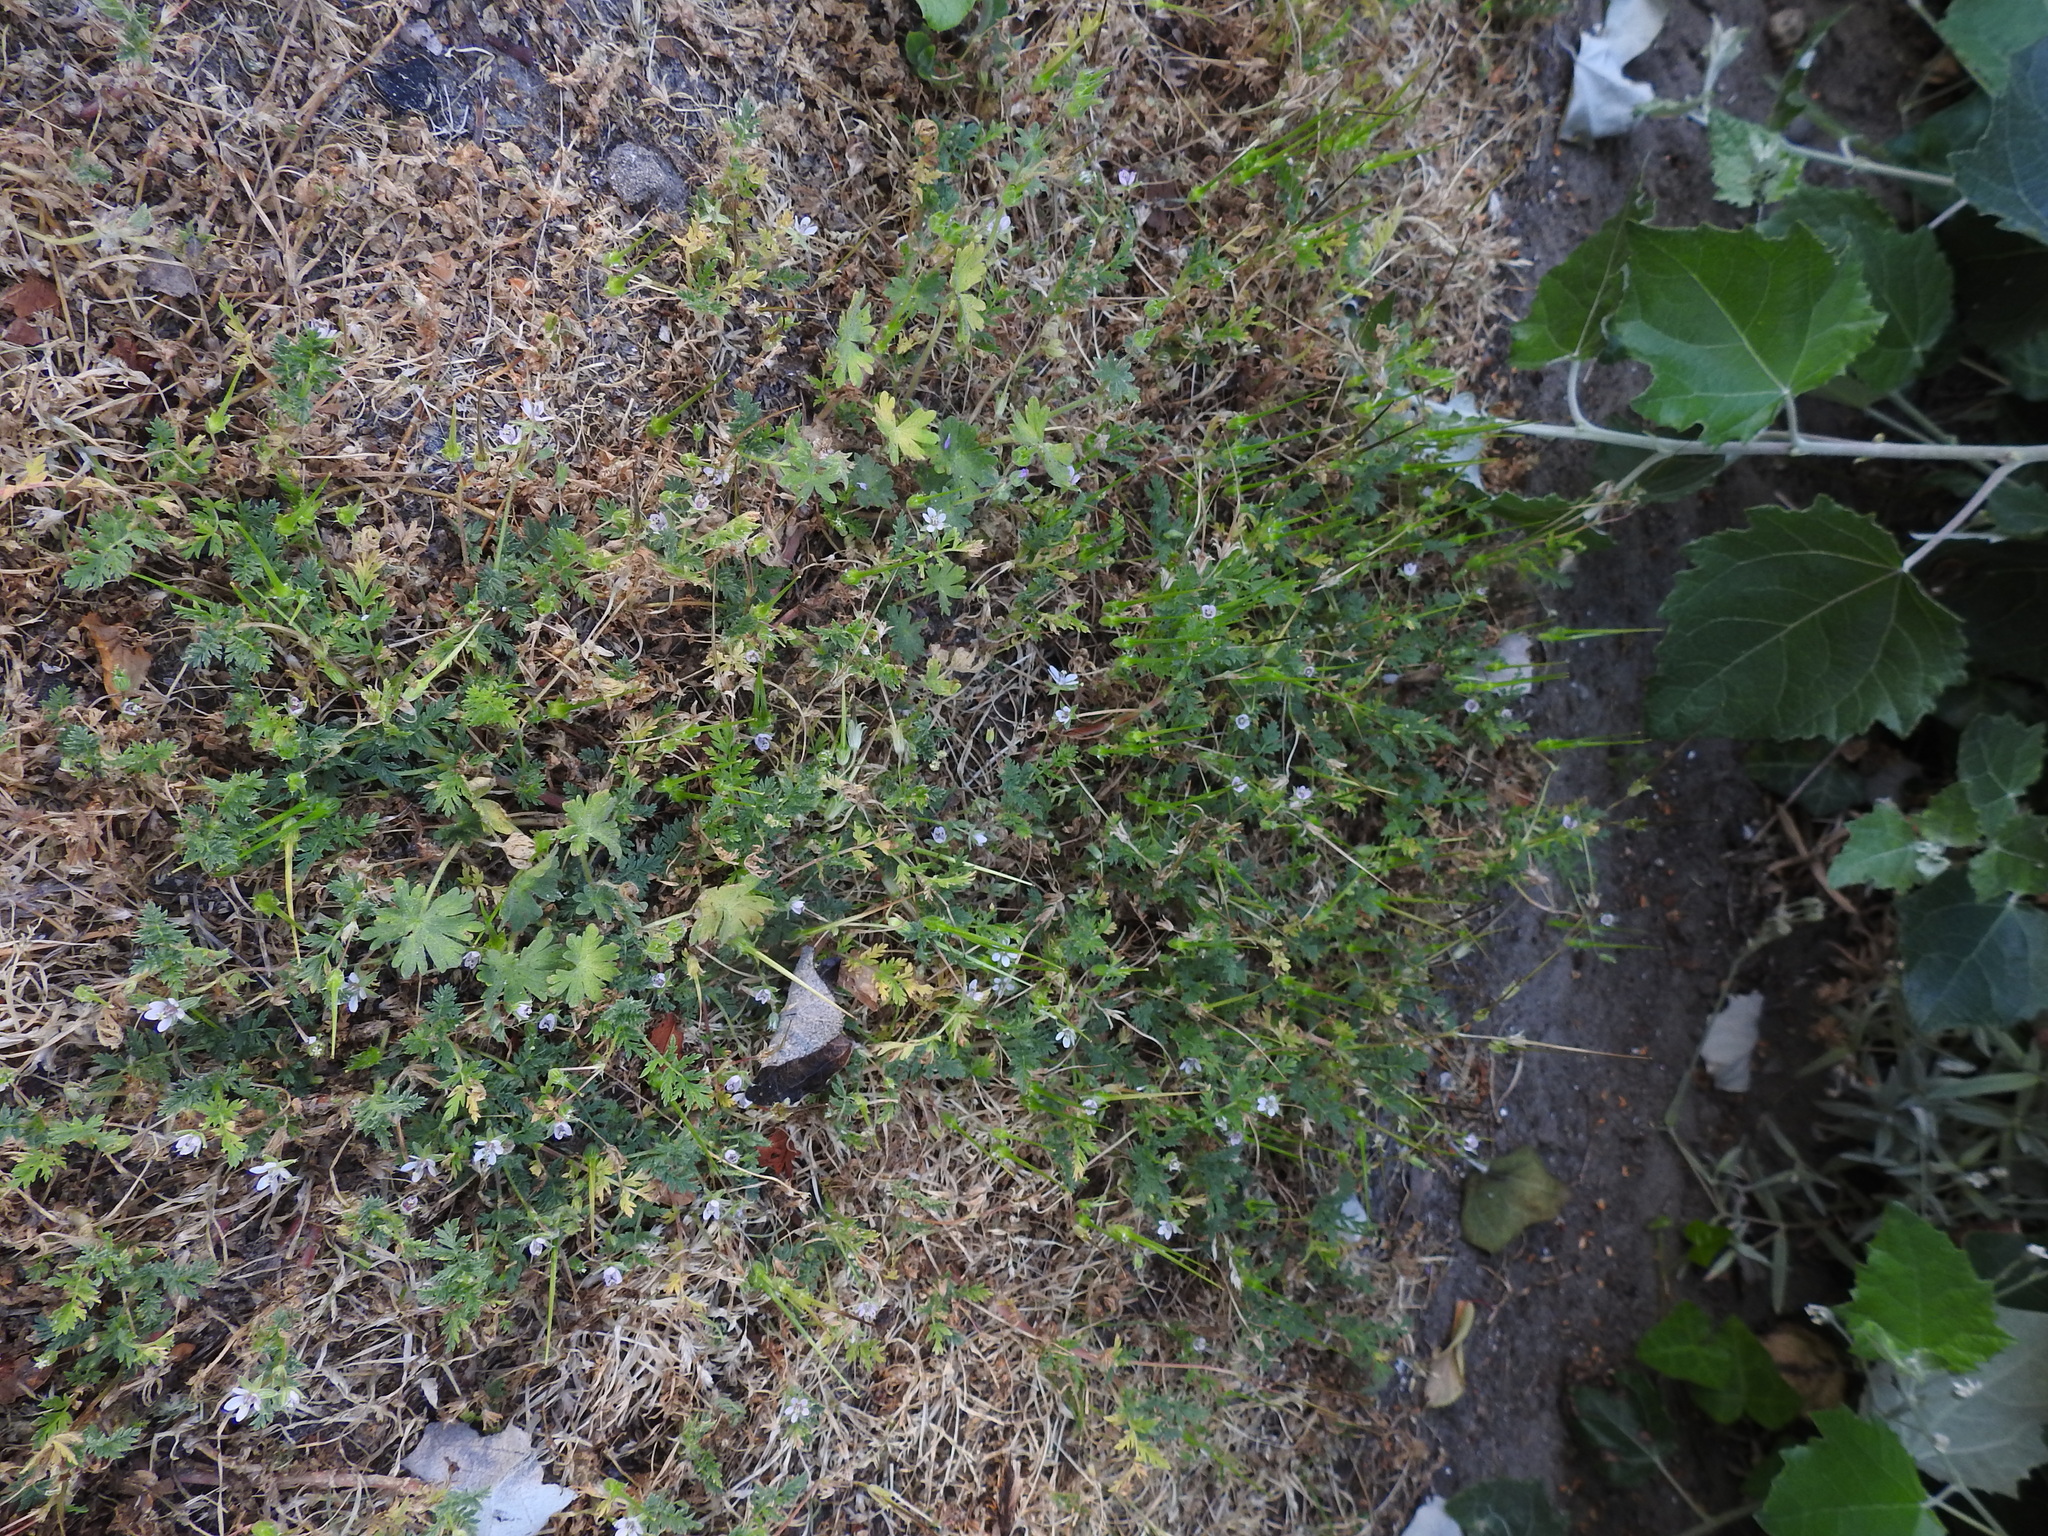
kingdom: Plantae
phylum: Tracheophyta
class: Magnoliopsida
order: Geraniales
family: Geraniaceae
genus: Erodium
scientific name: Erodium cicutarium
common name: Common stork's-bill
